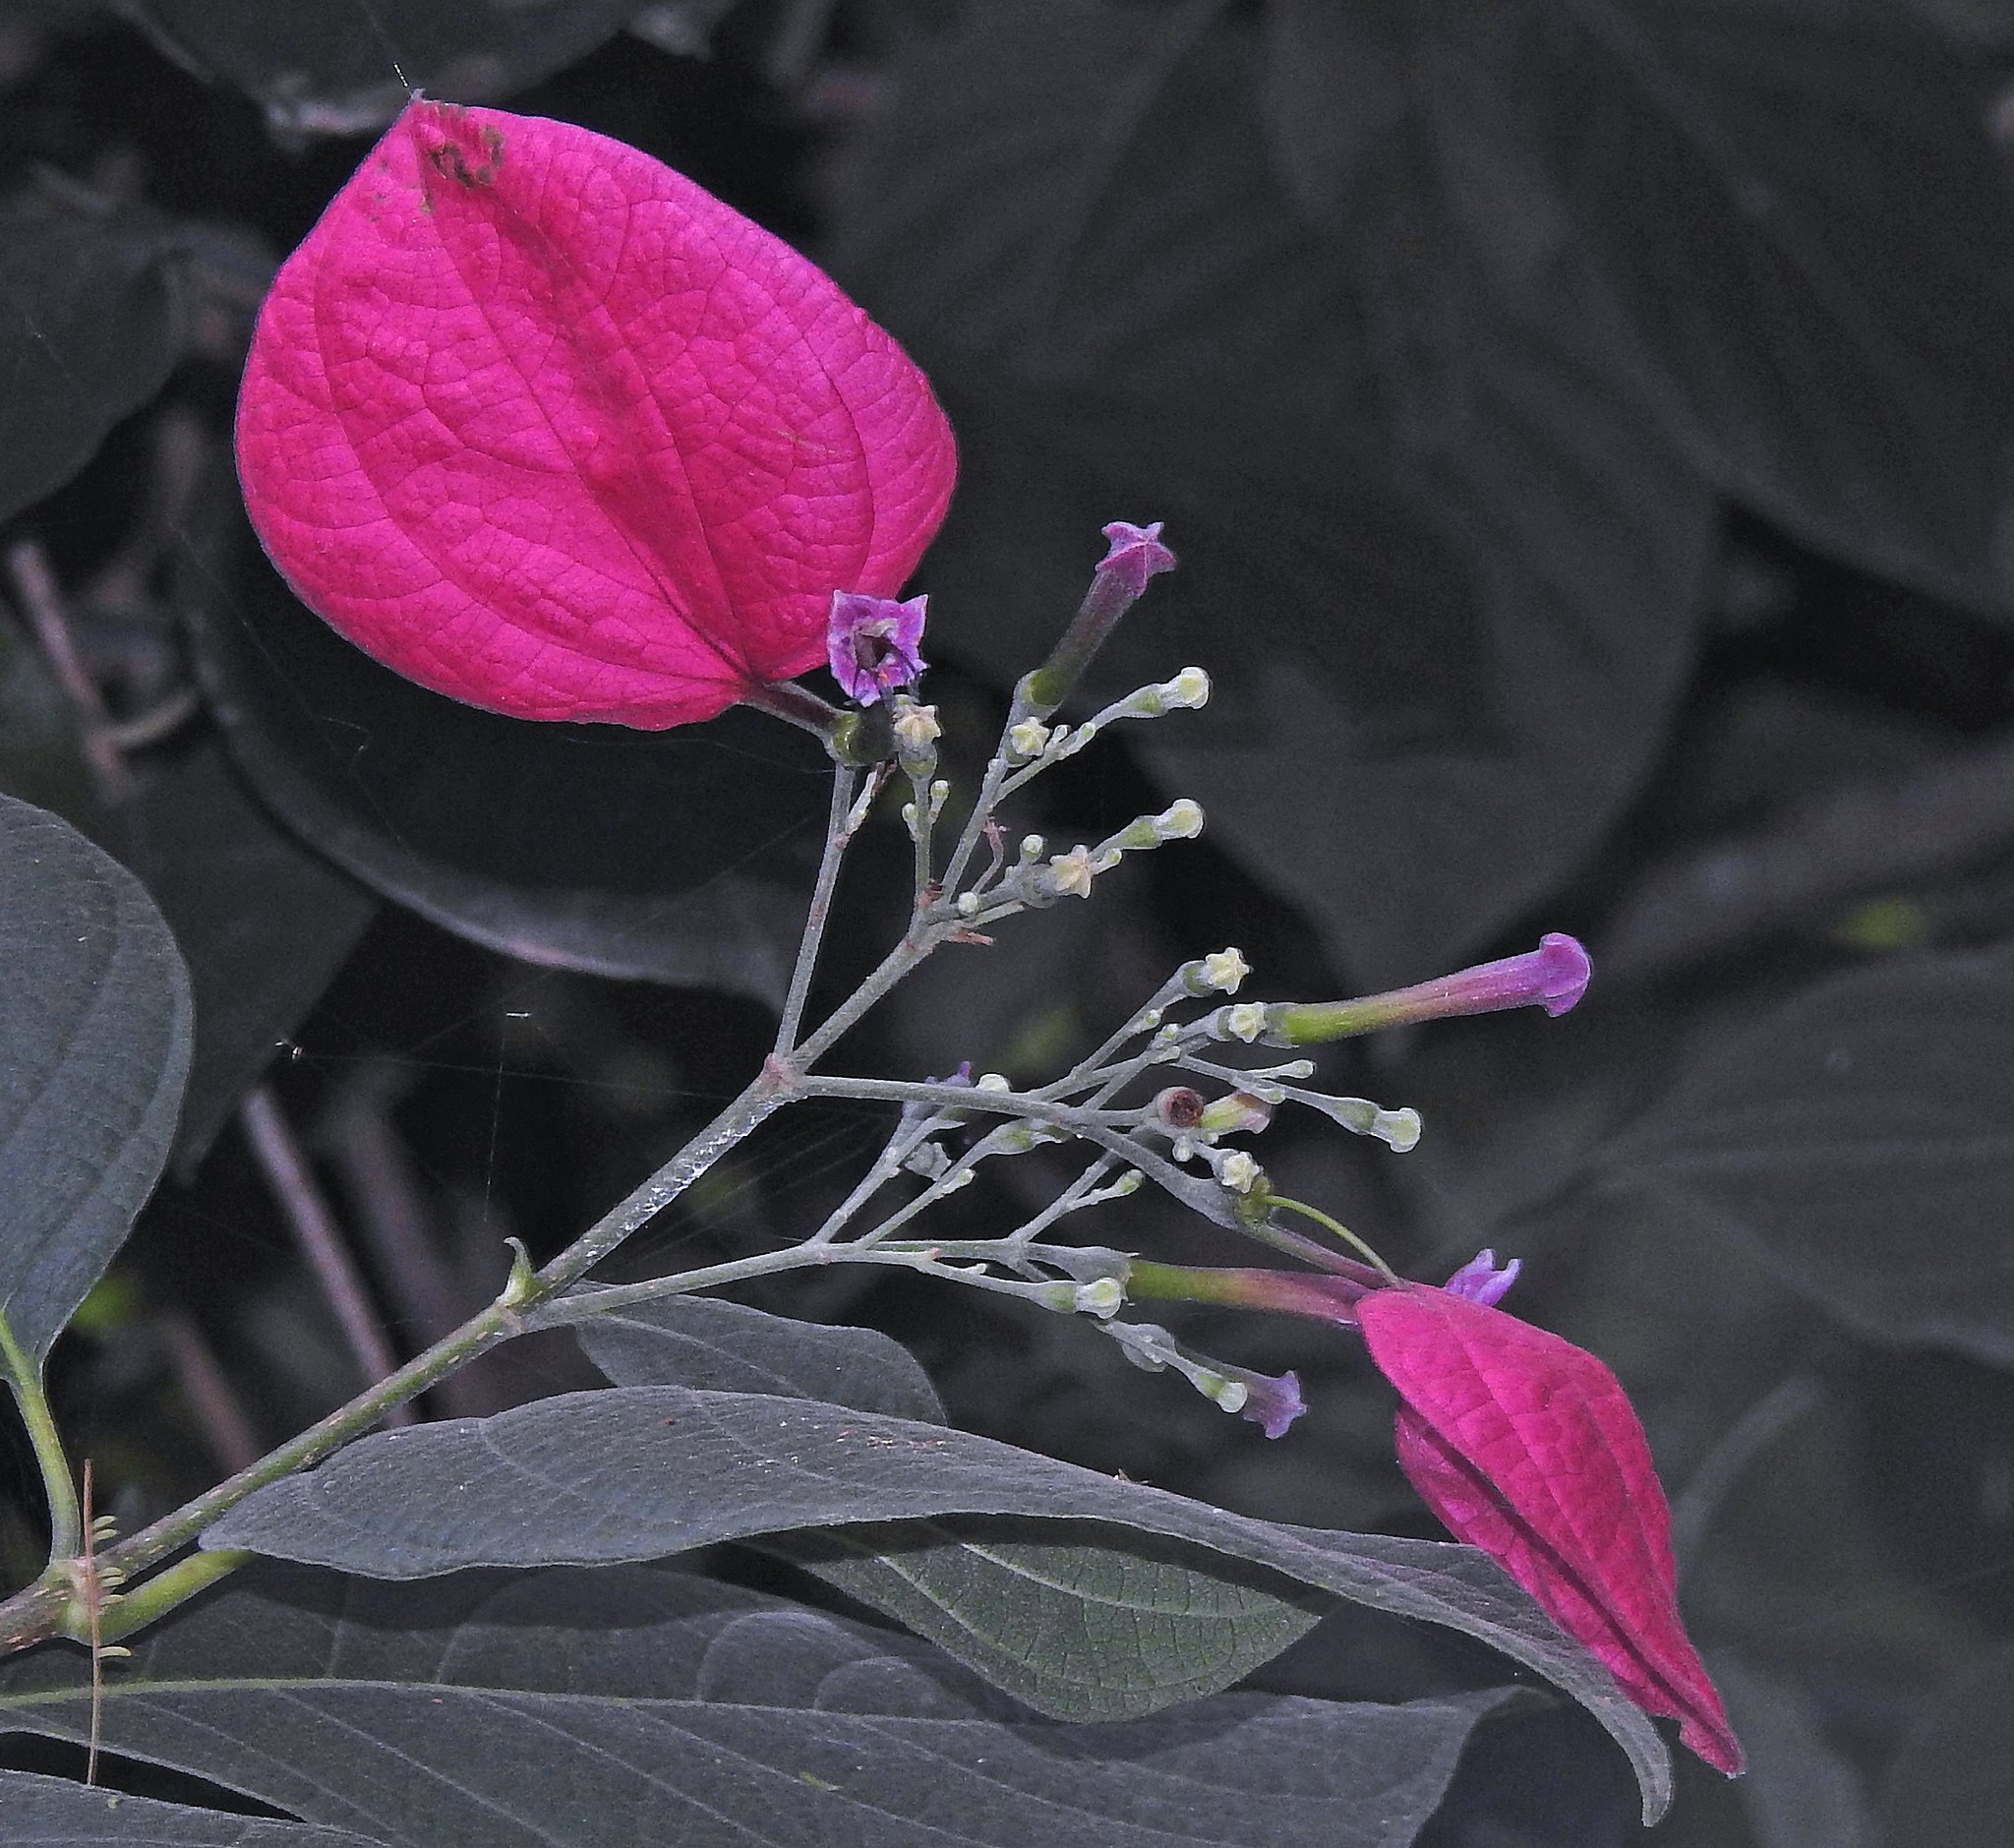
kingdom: Plantae
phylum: Tracheophyta
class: Magnoliopsida
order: Gentianales
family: Rubiaceae
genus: Pogonopus
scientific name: Pogonopus tubulosus
